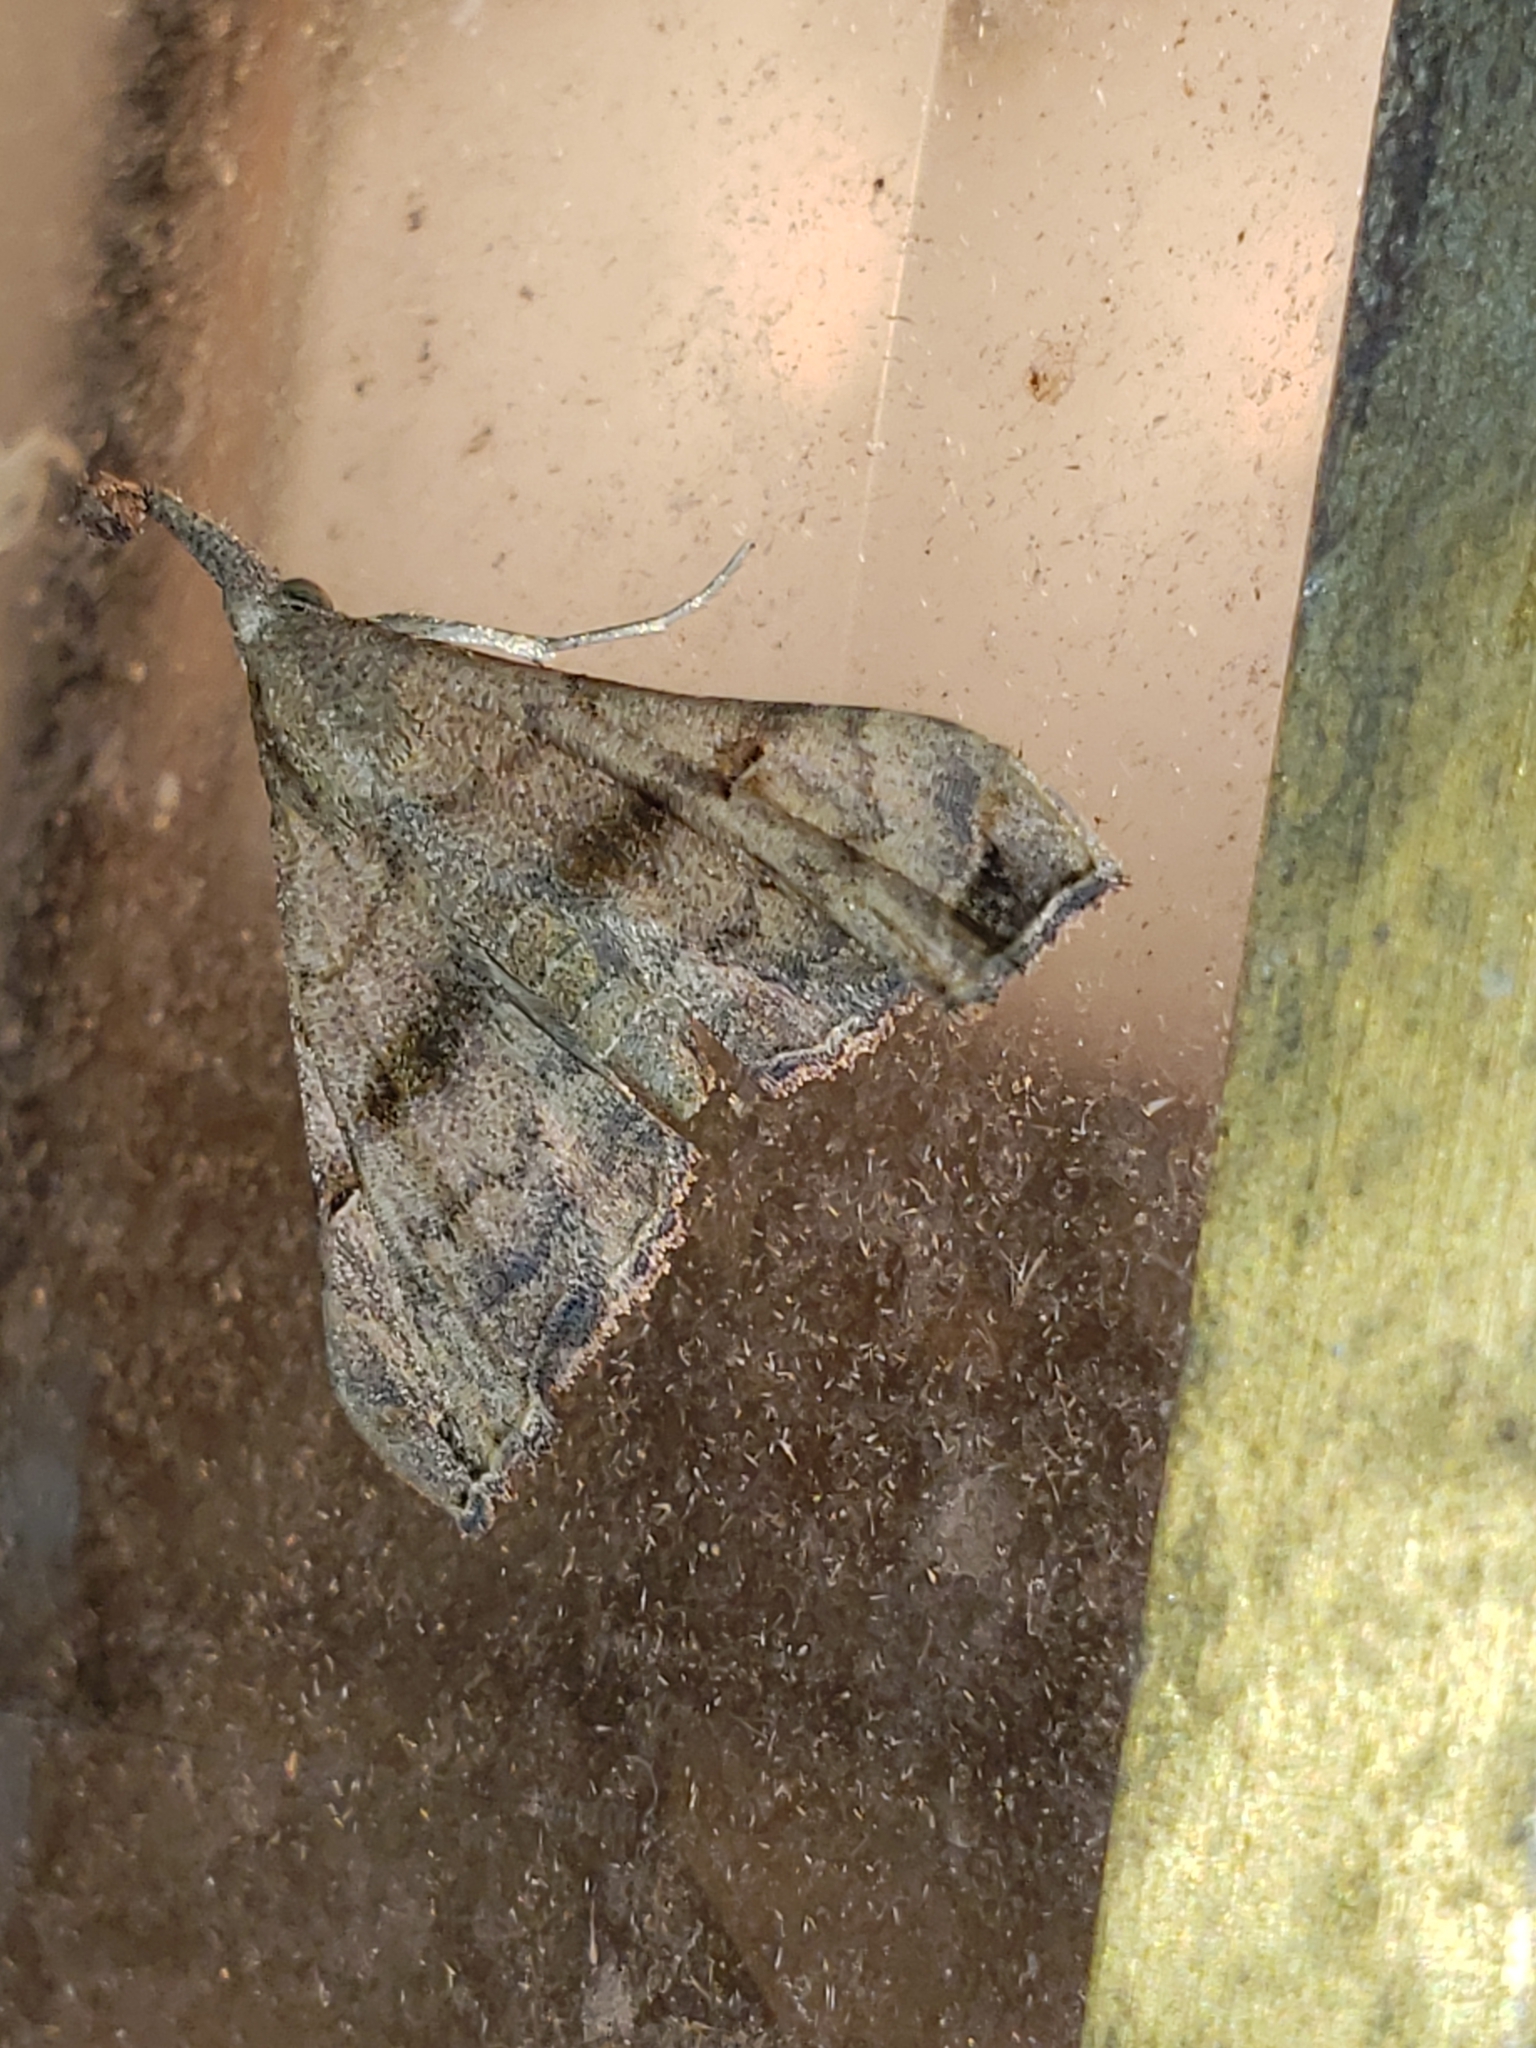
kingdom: Animalia
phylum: Arthropoda
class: Insecta
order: Lepidoptera
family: Erebidae
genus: Palthis
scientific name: Palthis asopialis
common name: Faint-spotted palthis moth
